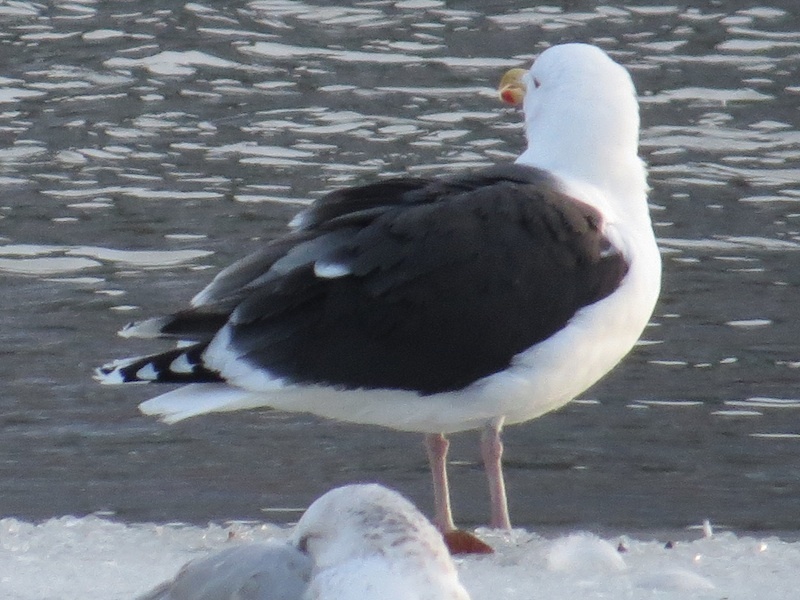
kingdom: Animalia
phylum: Chordata
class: Aves
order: Charadriiformes
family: Laridae
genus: Larus
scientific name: Larus marinus
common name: Great black-backed gull
